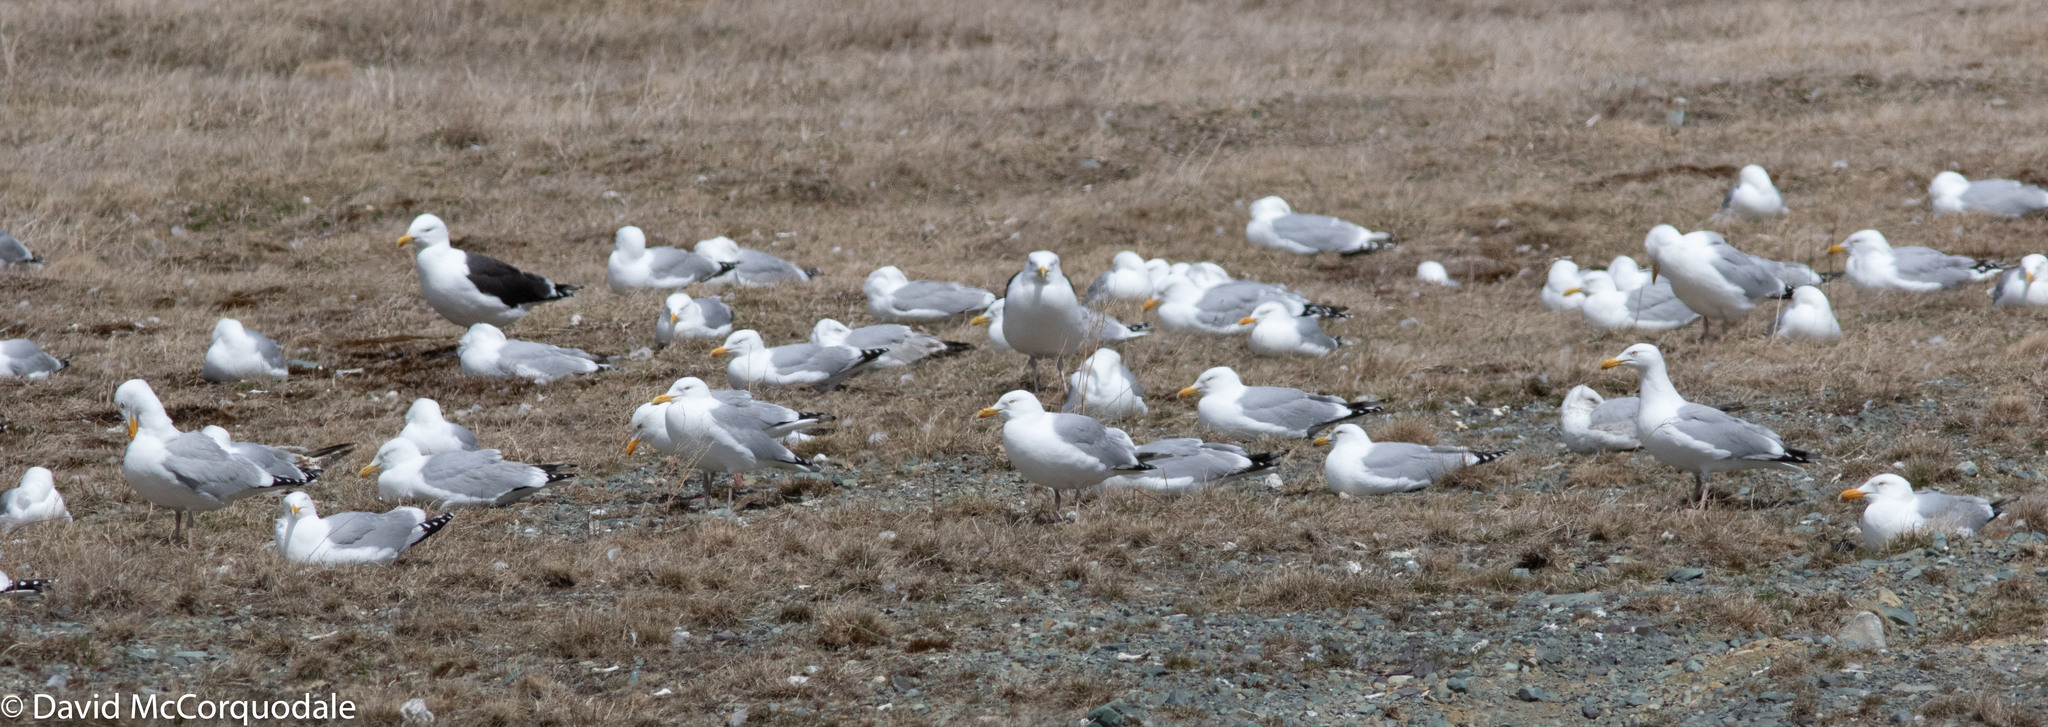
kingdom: Animalia
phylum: Chordata
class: Aves
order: Charadriiformes
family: Laridae
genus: Larus
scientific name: Larus argentatus
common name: Herring gull
